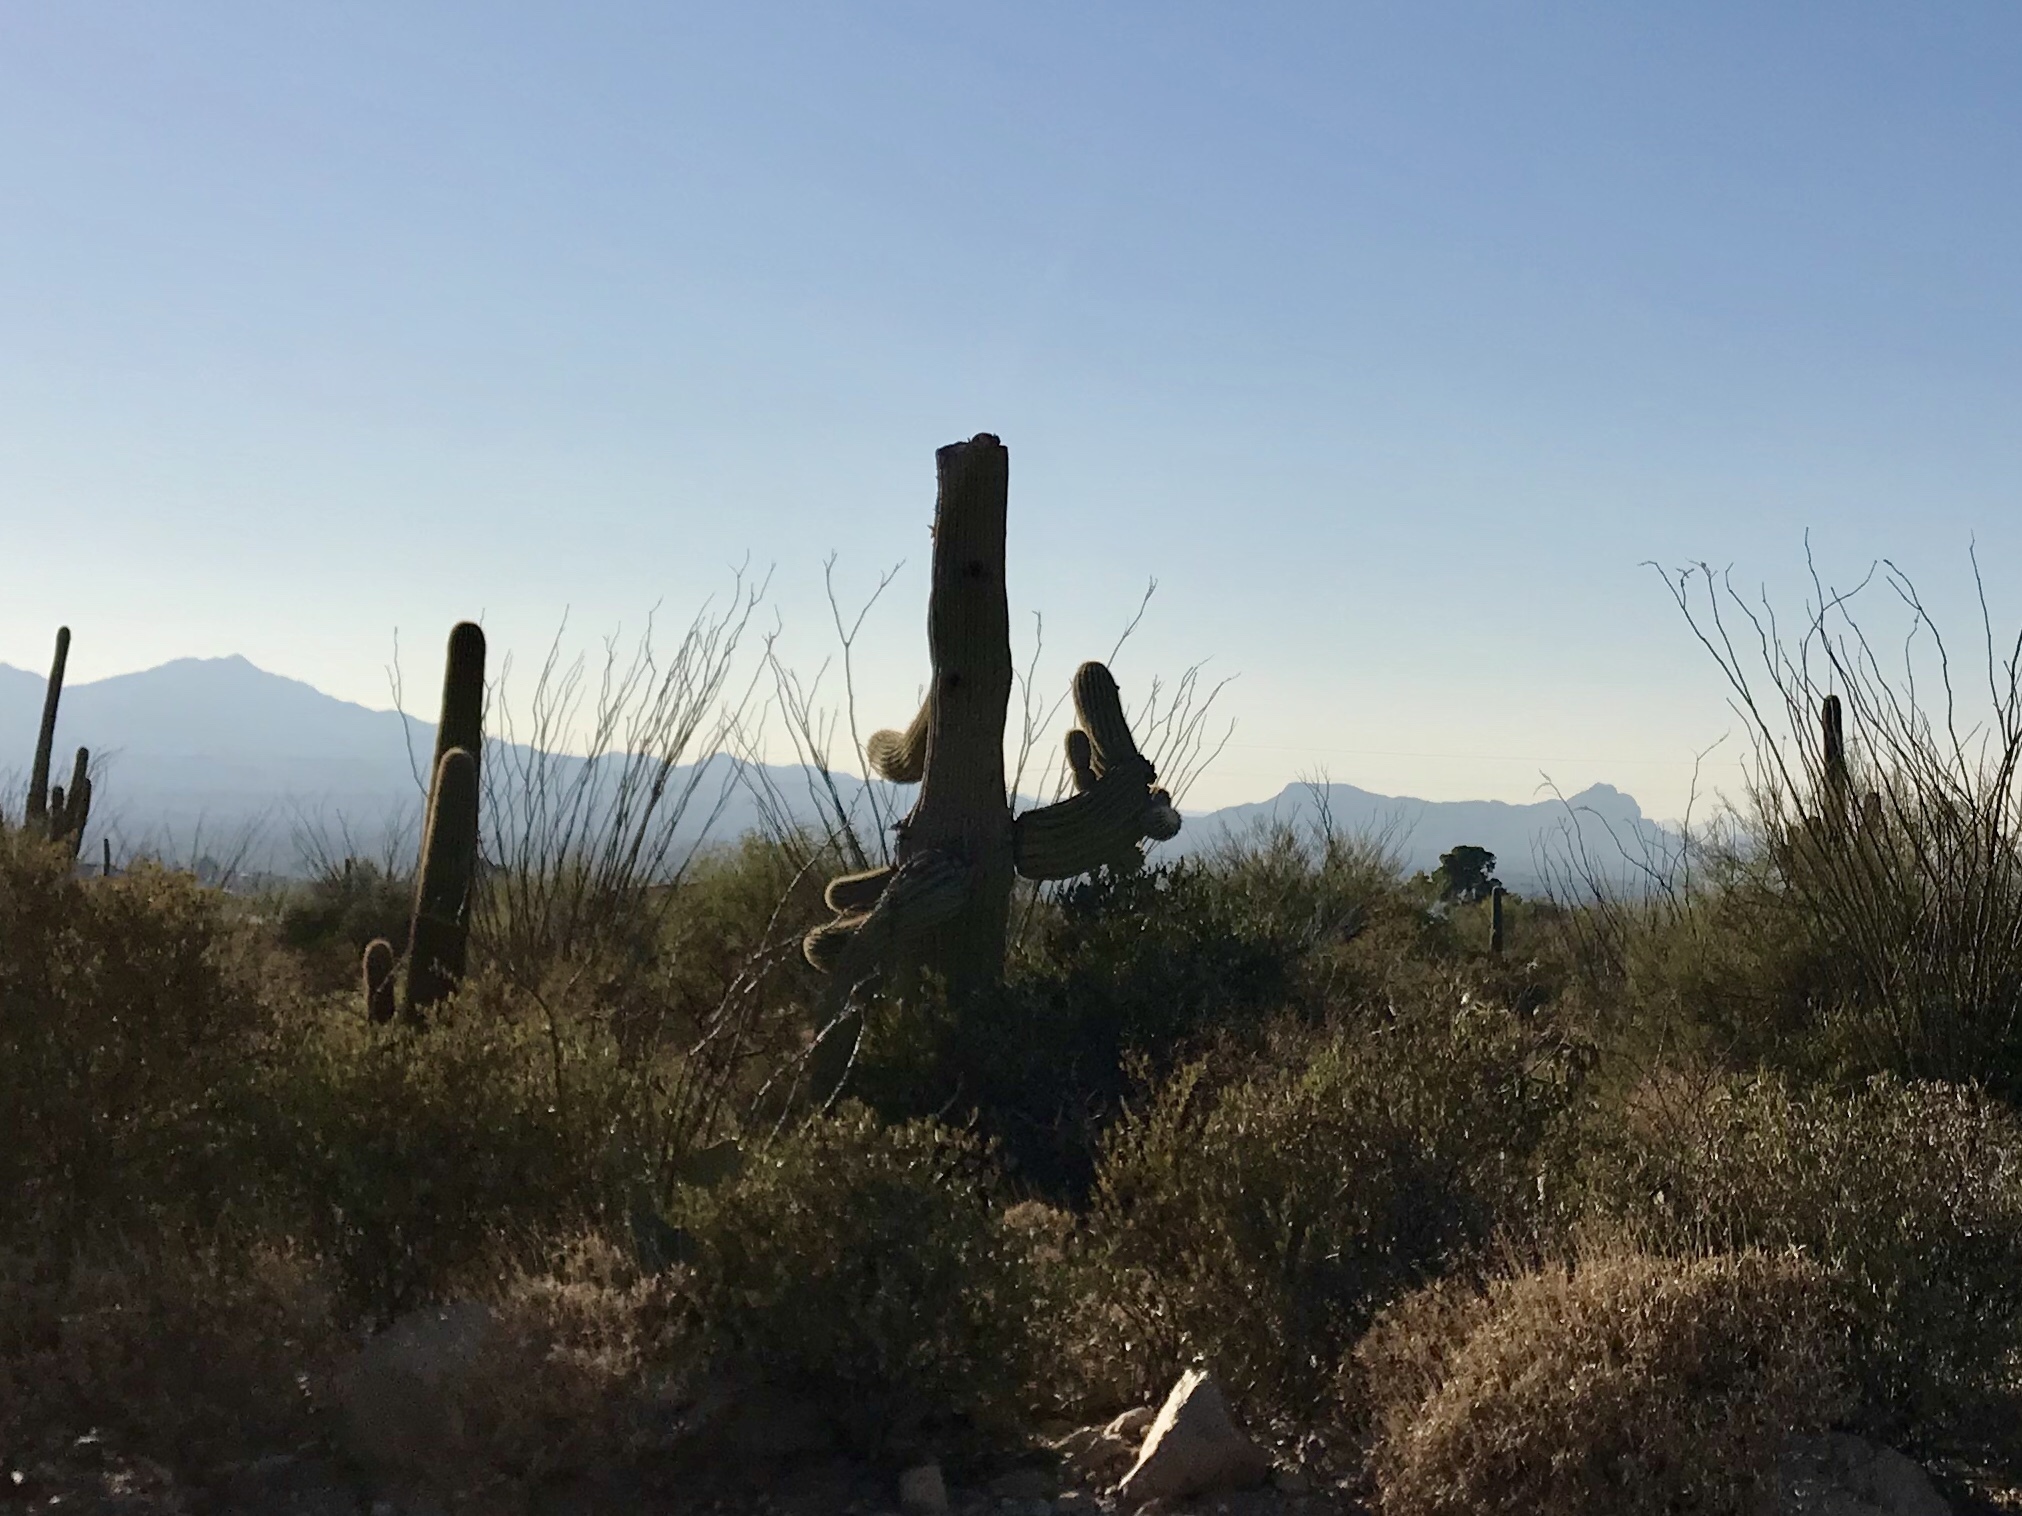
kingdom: Plantae
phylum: Tracheophyta
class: Magnoliopsida
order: Caryophyllales
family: Cactaceae
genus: Carnegiea
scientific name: Carnegiea gigantea
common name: Saguaro
